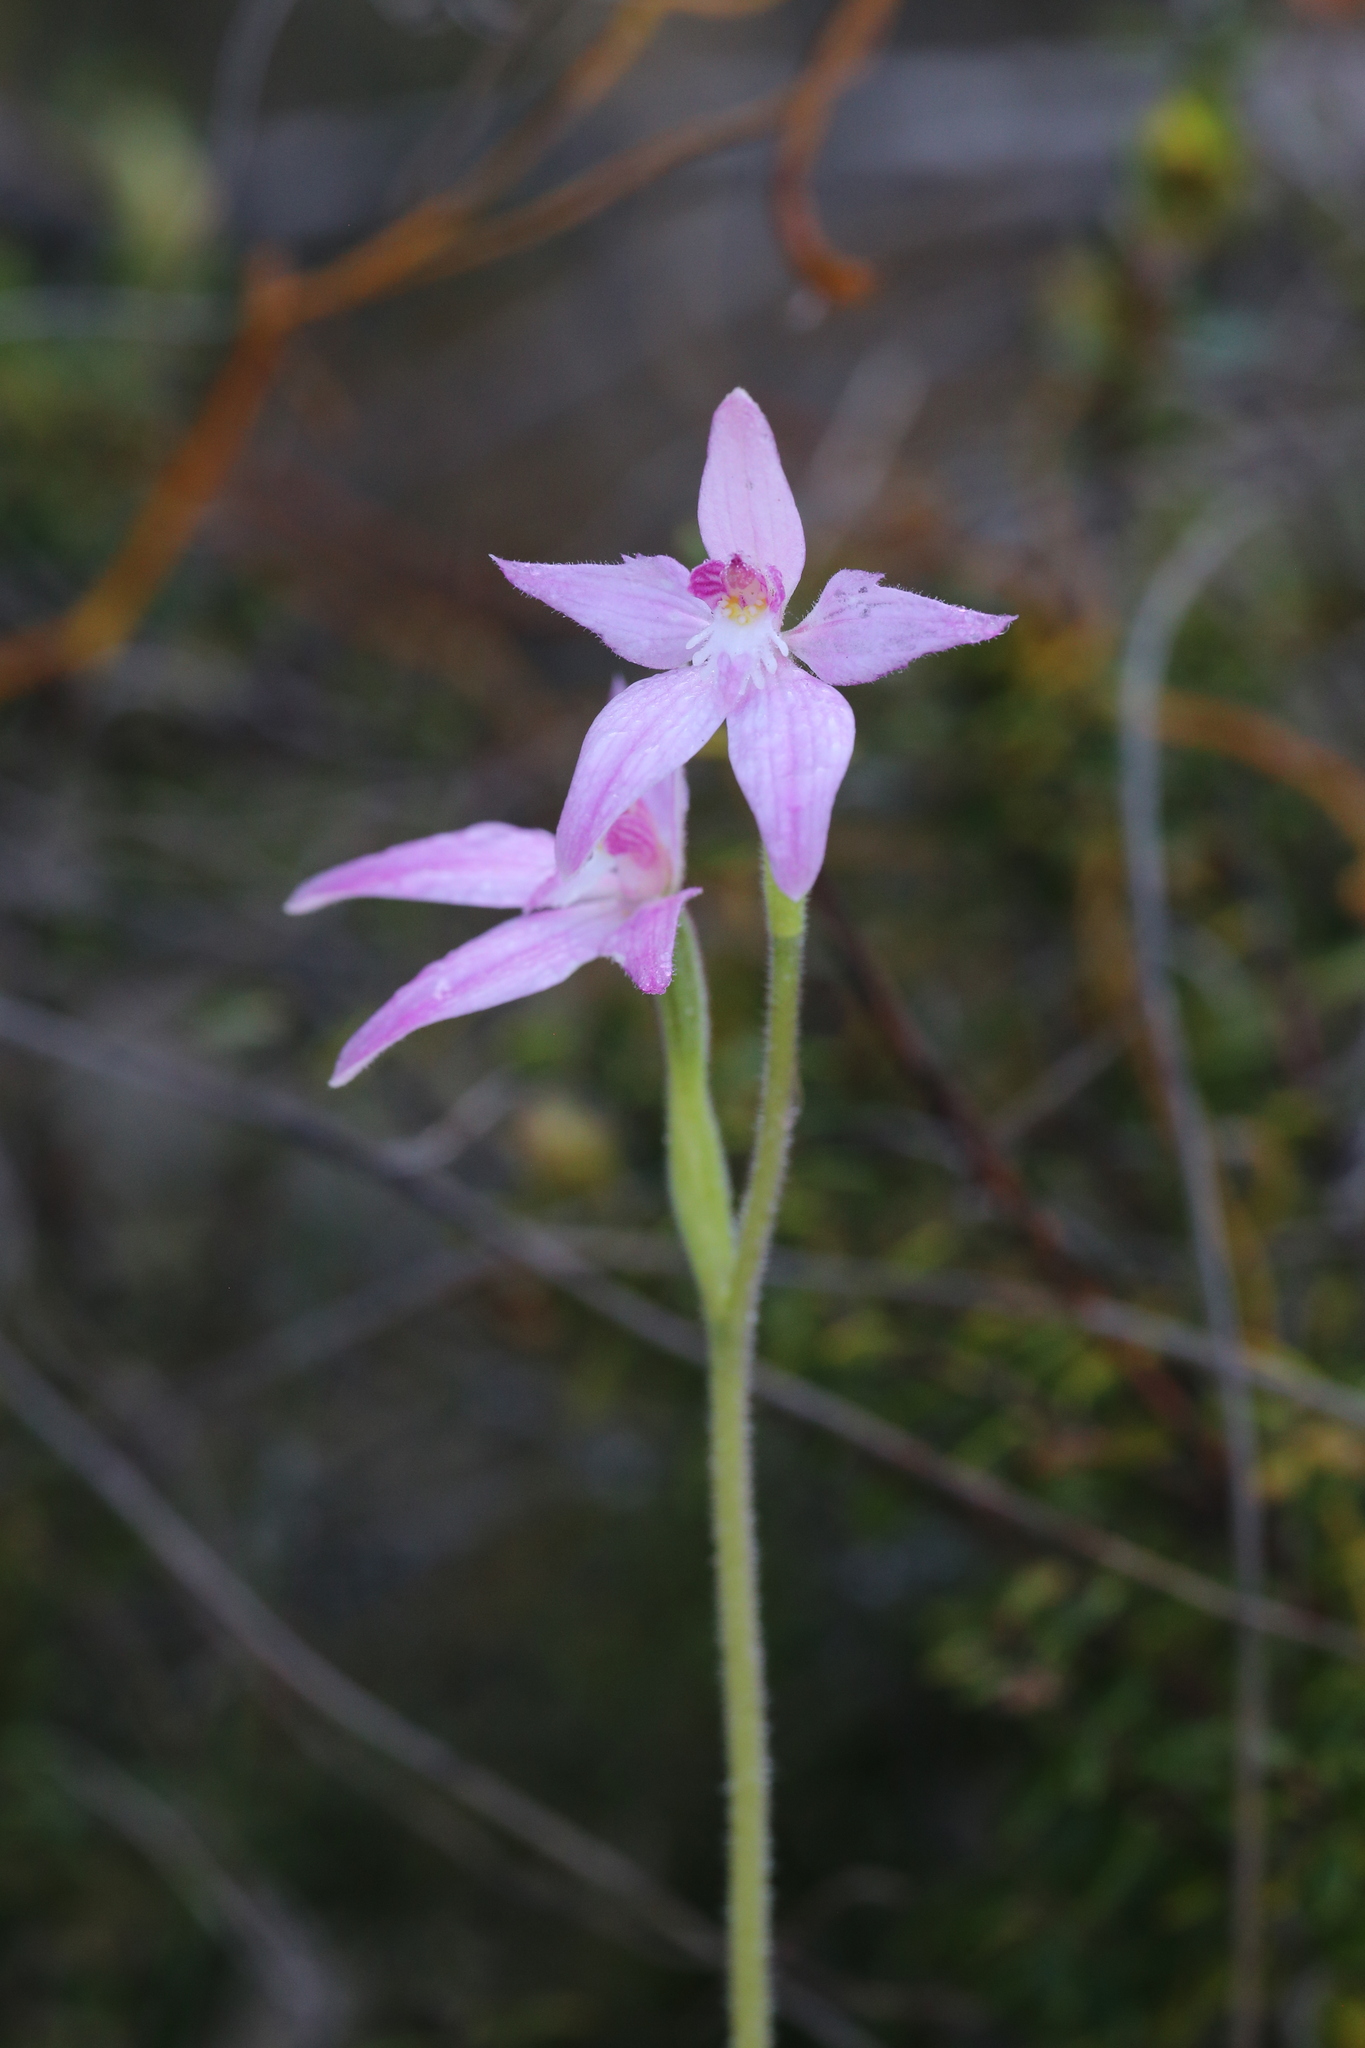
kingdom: Plantae
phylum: Tracheophyta
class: Liliopsida
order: Asparagales
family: Orchidaceae
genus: Caladenia
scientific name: Caladenia latifolia
